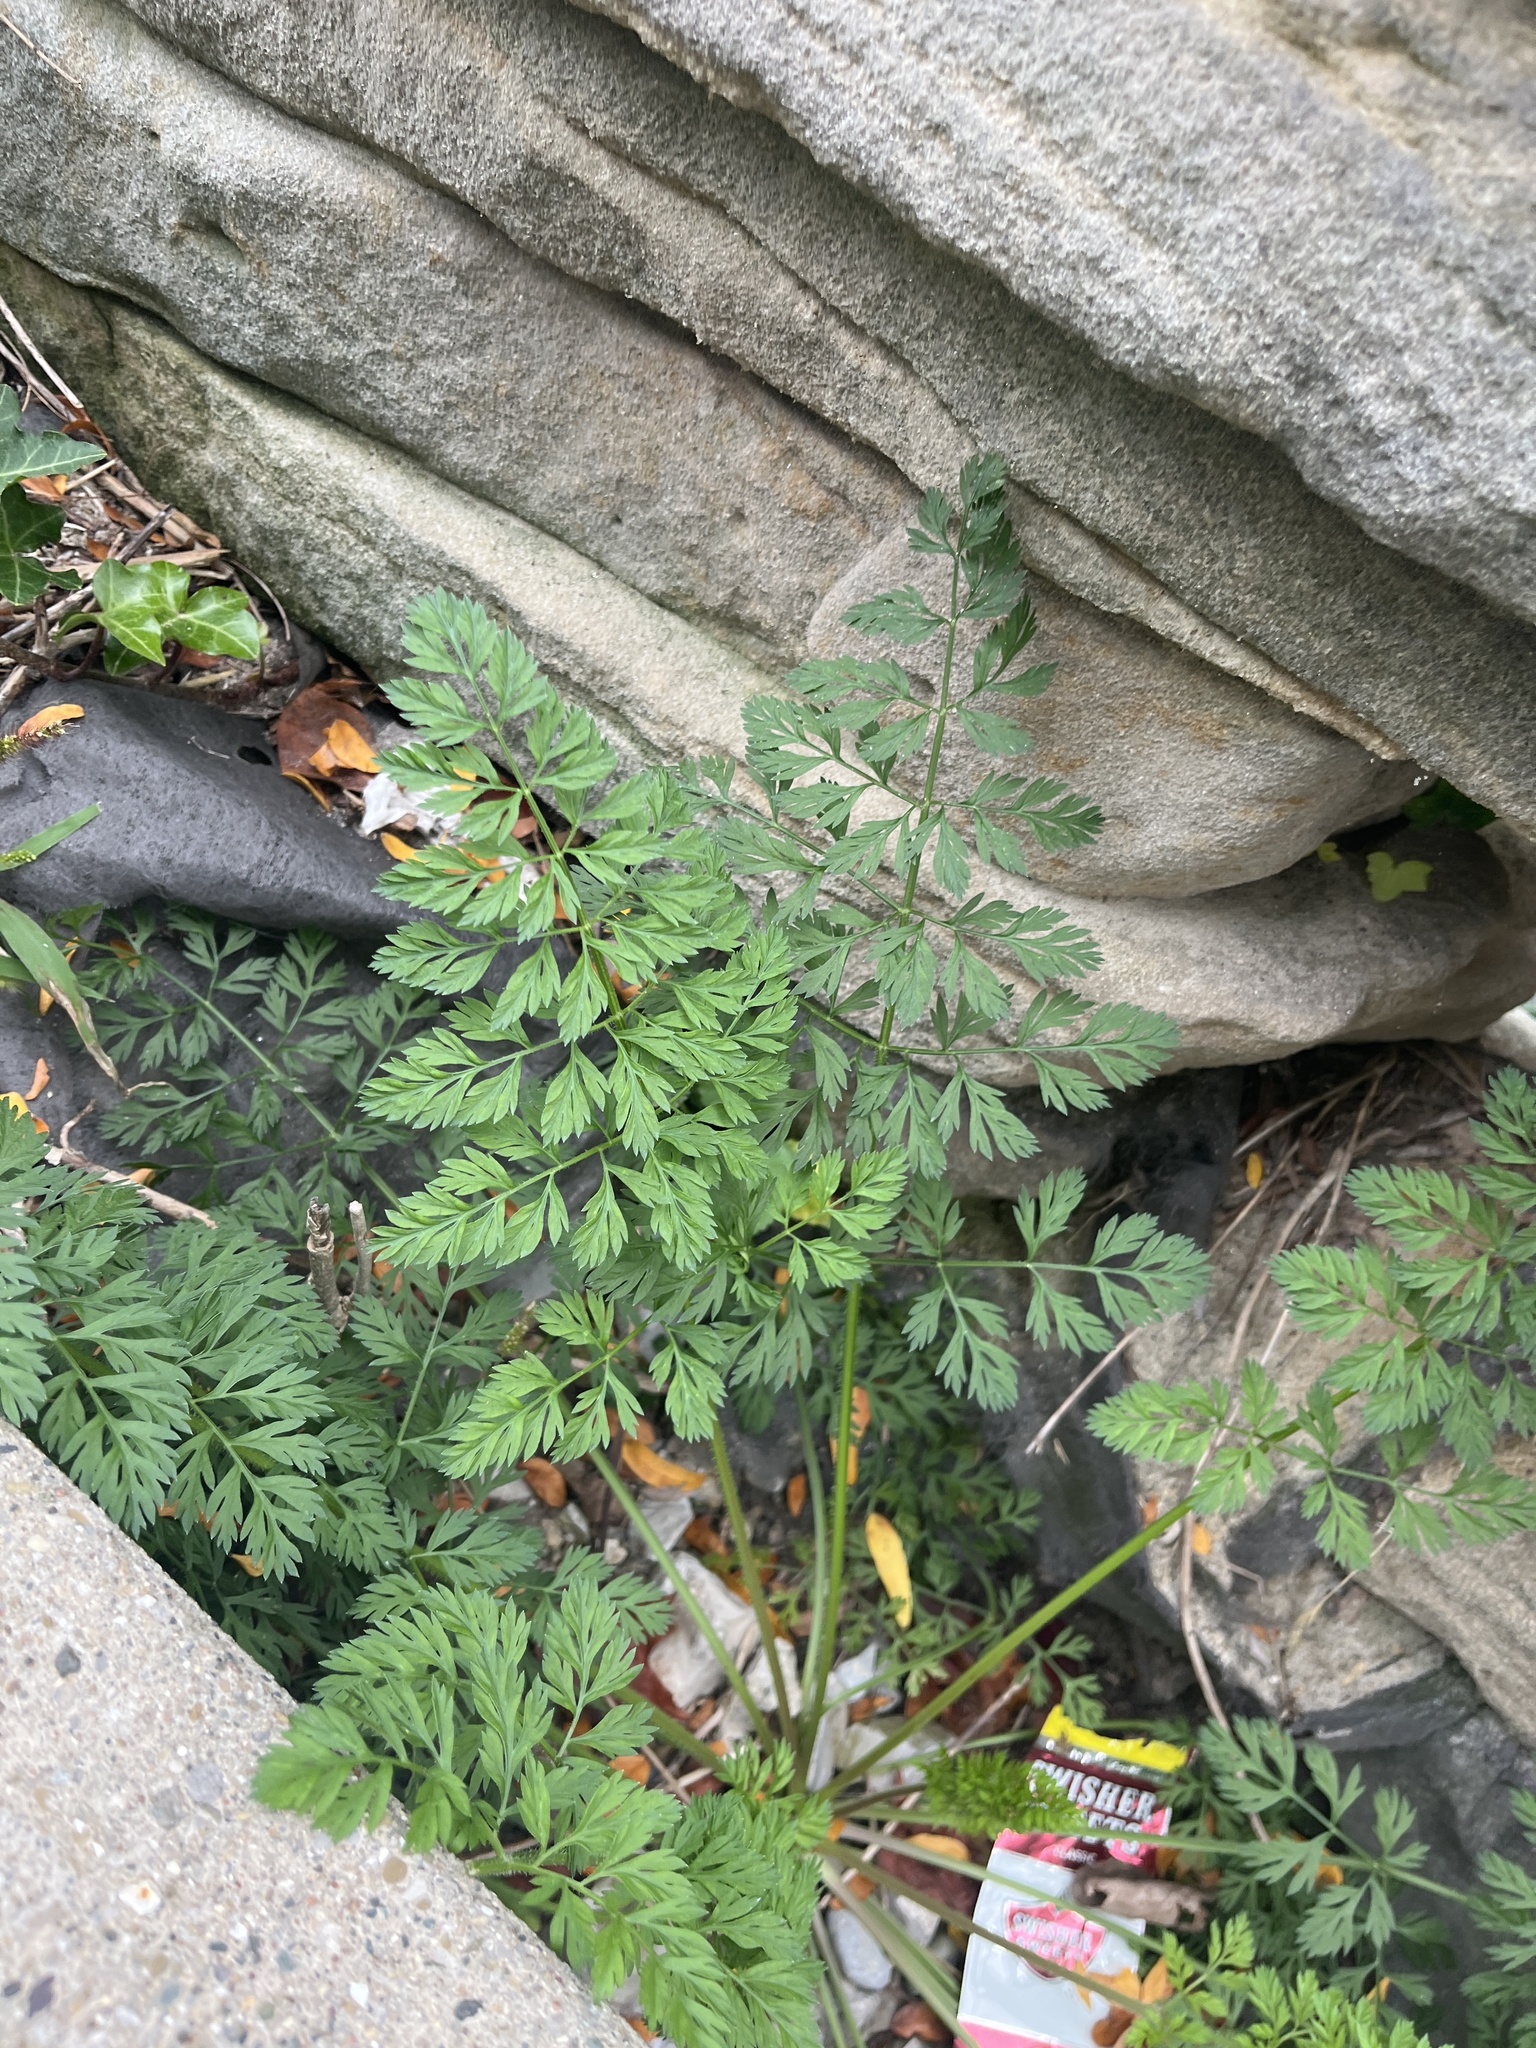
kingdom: Plantae
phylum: Tracheophyta
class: Magnoliopsida
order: Apiales
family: Apiaceae
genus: Daucus
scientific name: Daucus carota
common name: Wild carrot
